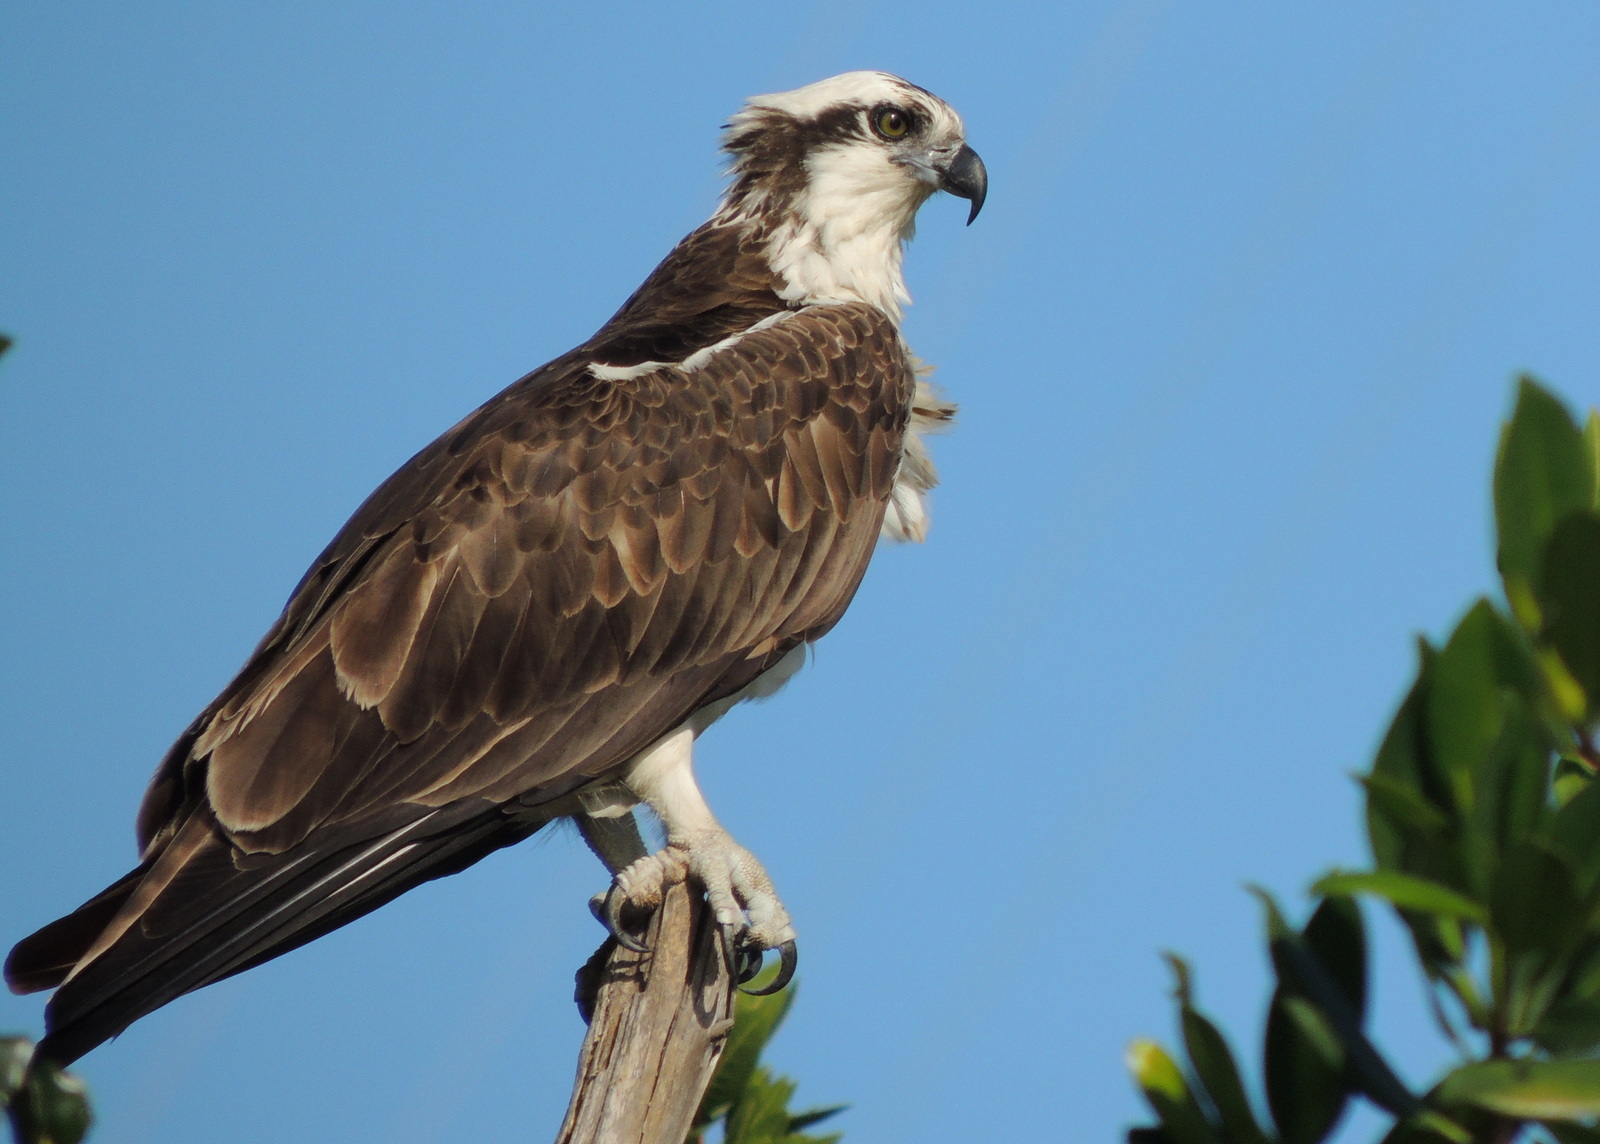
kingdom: Animalia
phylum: Chordata
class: Aves
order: Accipitriformes
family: Pandionidae
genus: Pandion
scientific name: Pandion haliaetus
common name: Osprey
